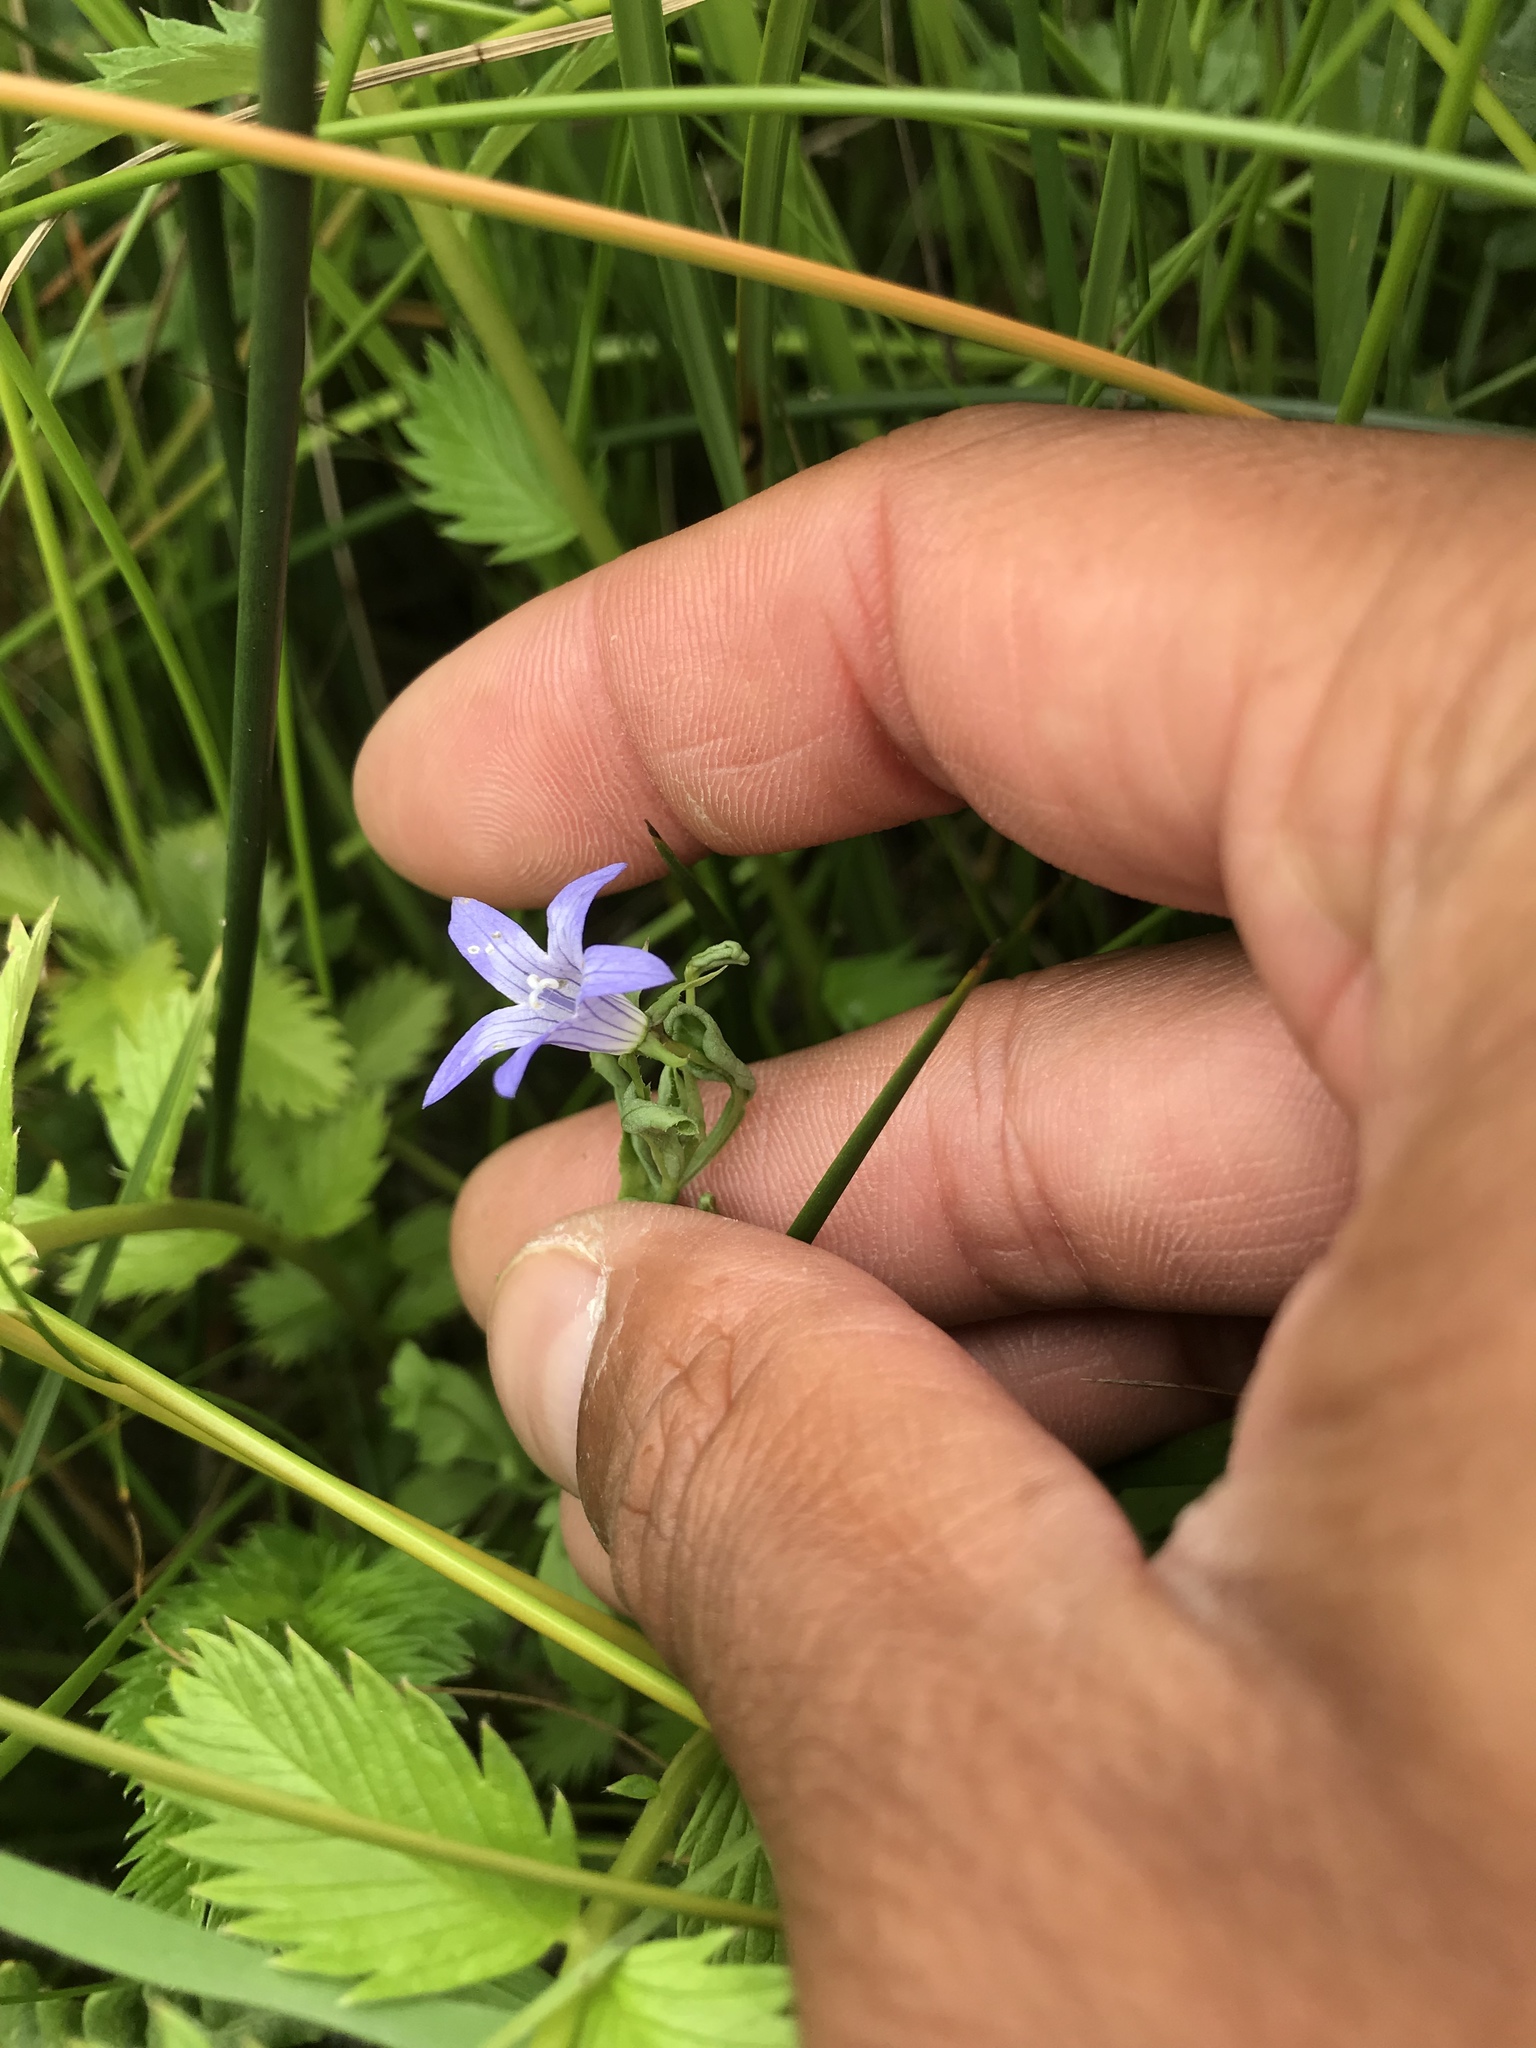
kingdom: Plantae
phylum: Tracheophyta
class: Magnoliopsida
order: Asterales
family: Campanulaceae
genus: Eastwoodiella
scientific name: Eastwoodiella californica
